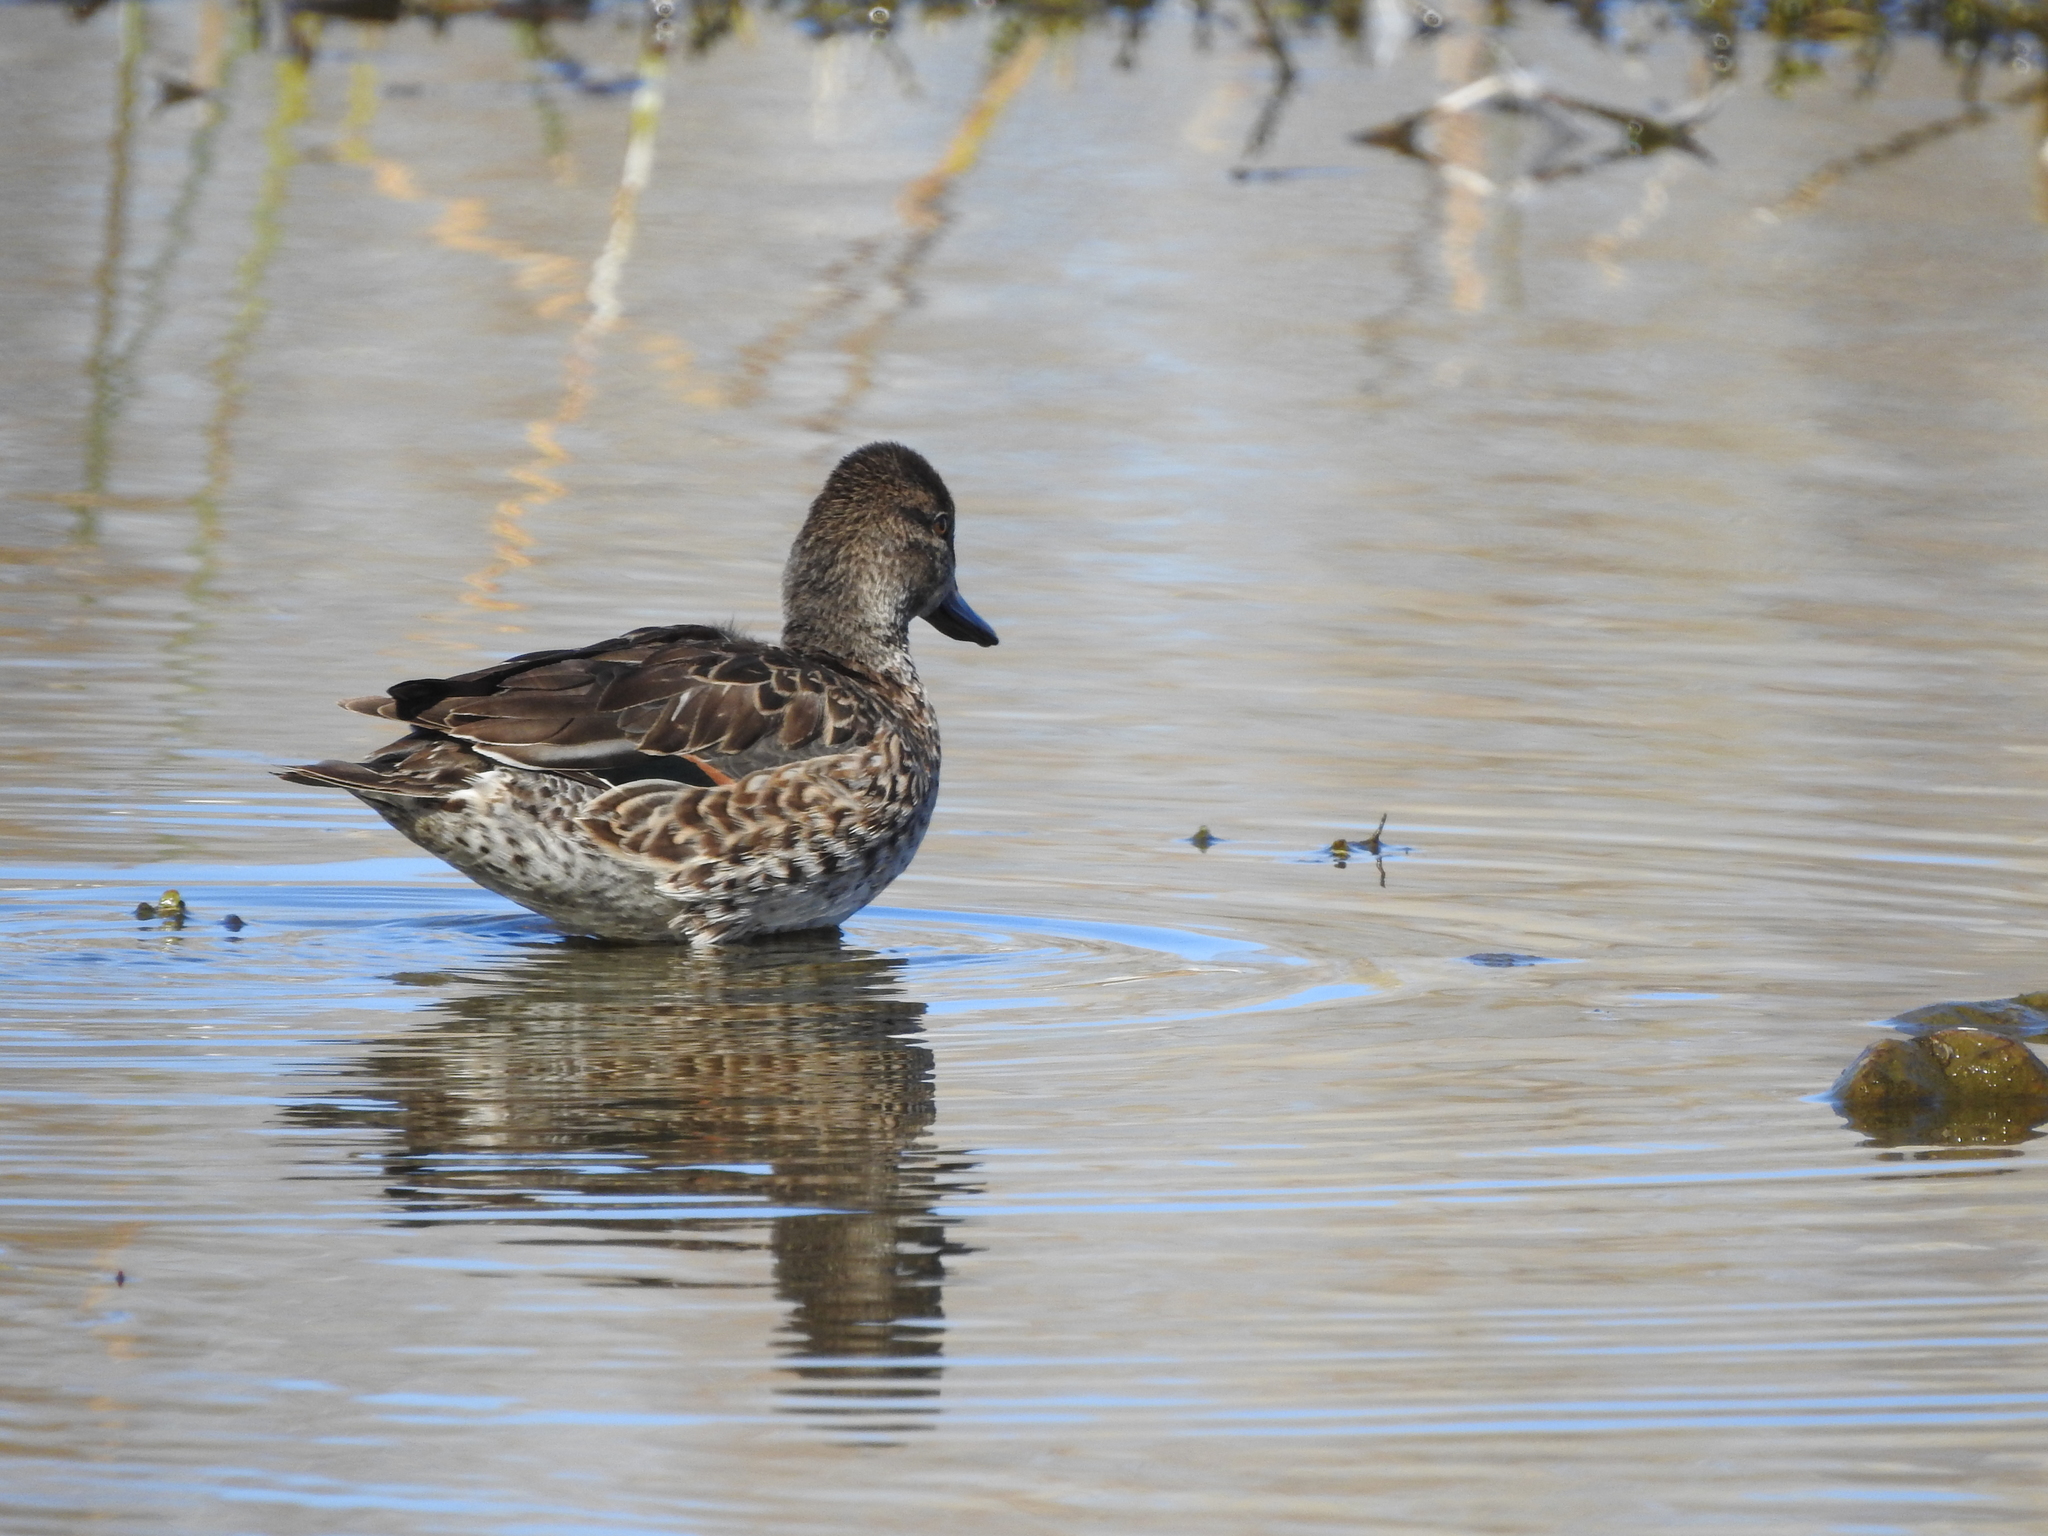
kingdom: Animalia
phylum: Chordata
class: Aves
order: Anseriformes
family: Anatidae
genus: Anas
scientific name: Anas crecca
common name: Eurasian teal
